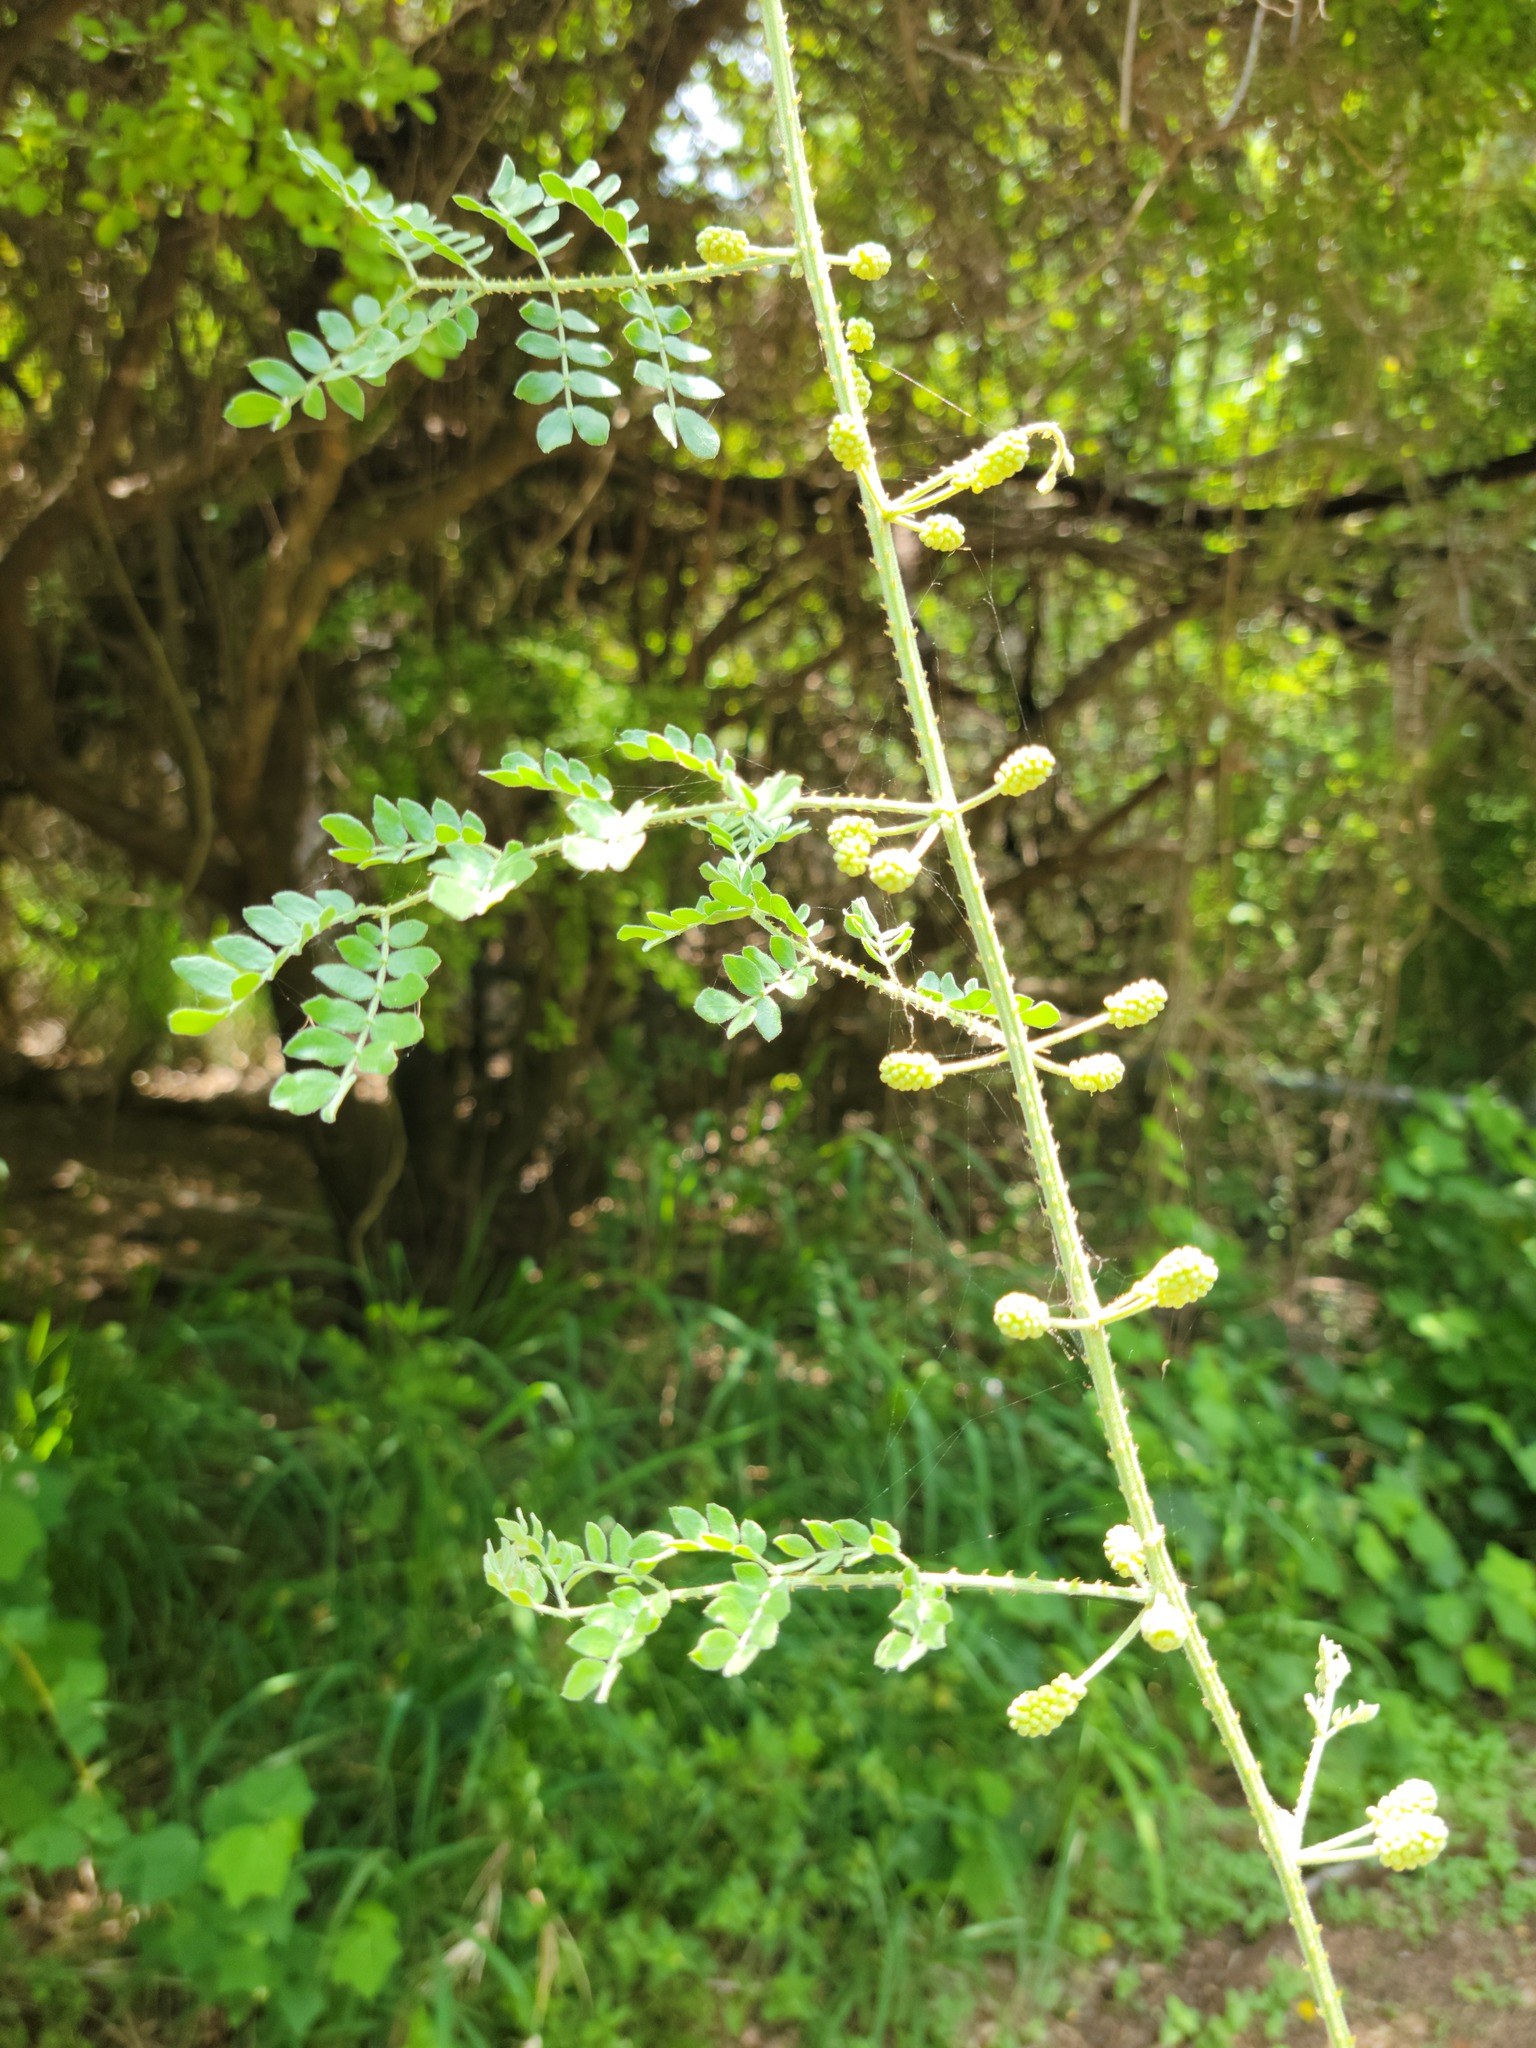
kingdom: Plantae
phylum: Tracheophyta
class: Magnoliopsida
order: Fabales
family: Fabaceae
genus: Mimosa
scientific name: Mimosa malacophylla
